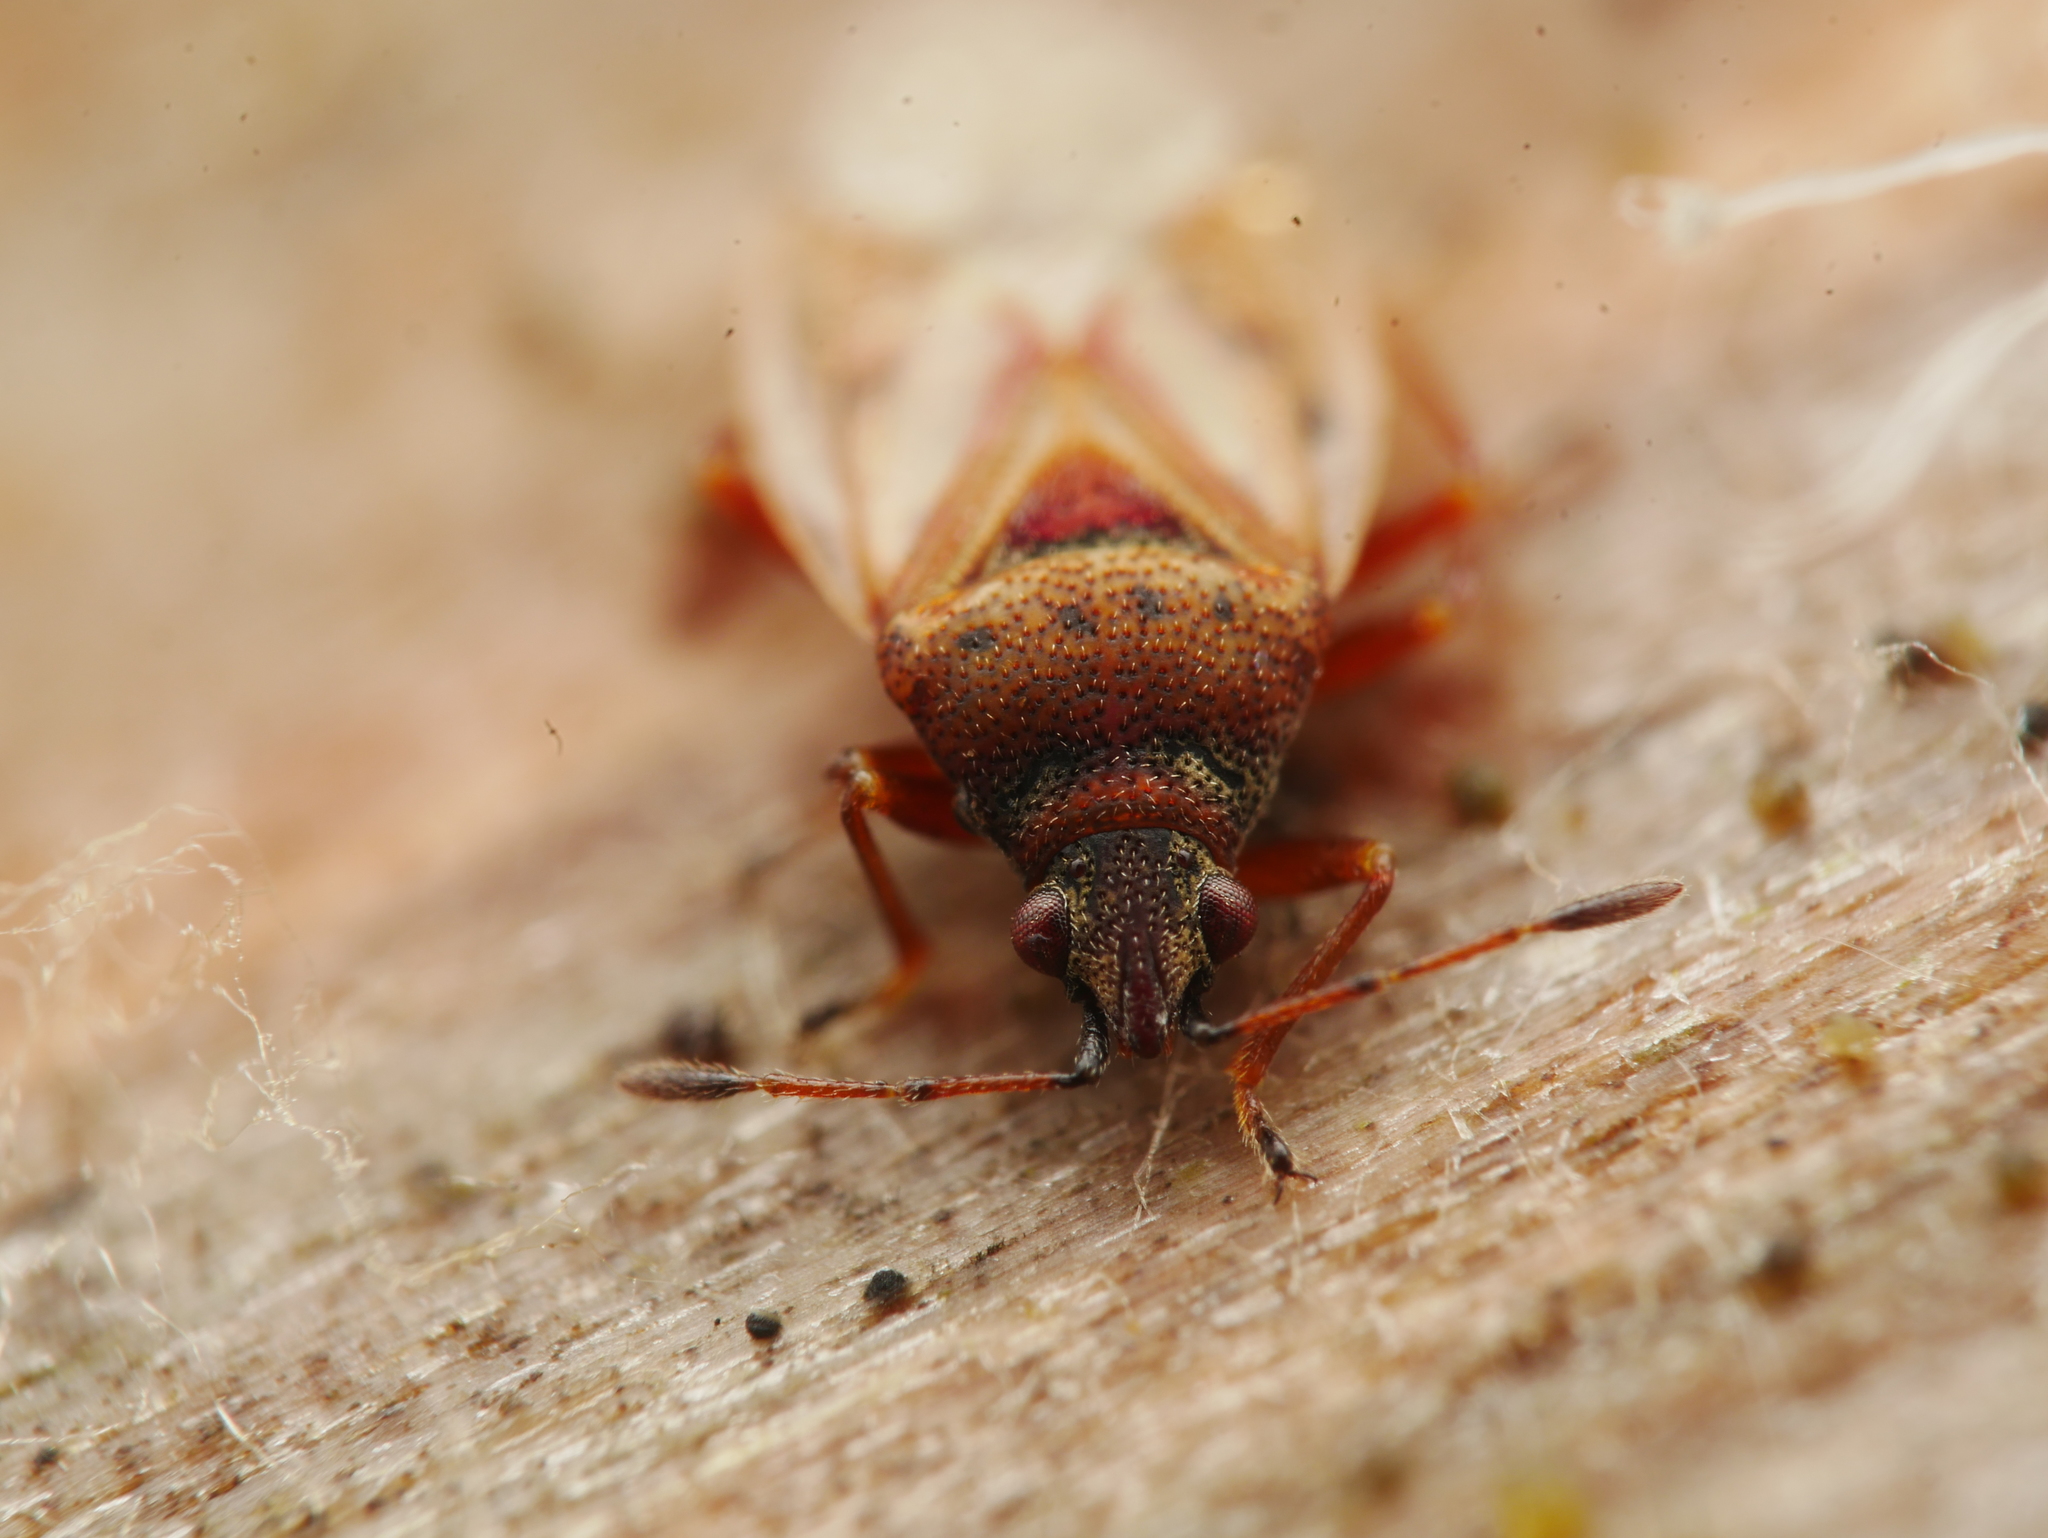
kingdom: Animalia
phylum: Arthropoda
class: Insecta
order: Hemiptera
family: Lygaeidae
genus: Kleidocerys
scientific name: Kleidocerys resedae
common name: Birch catkin bug
